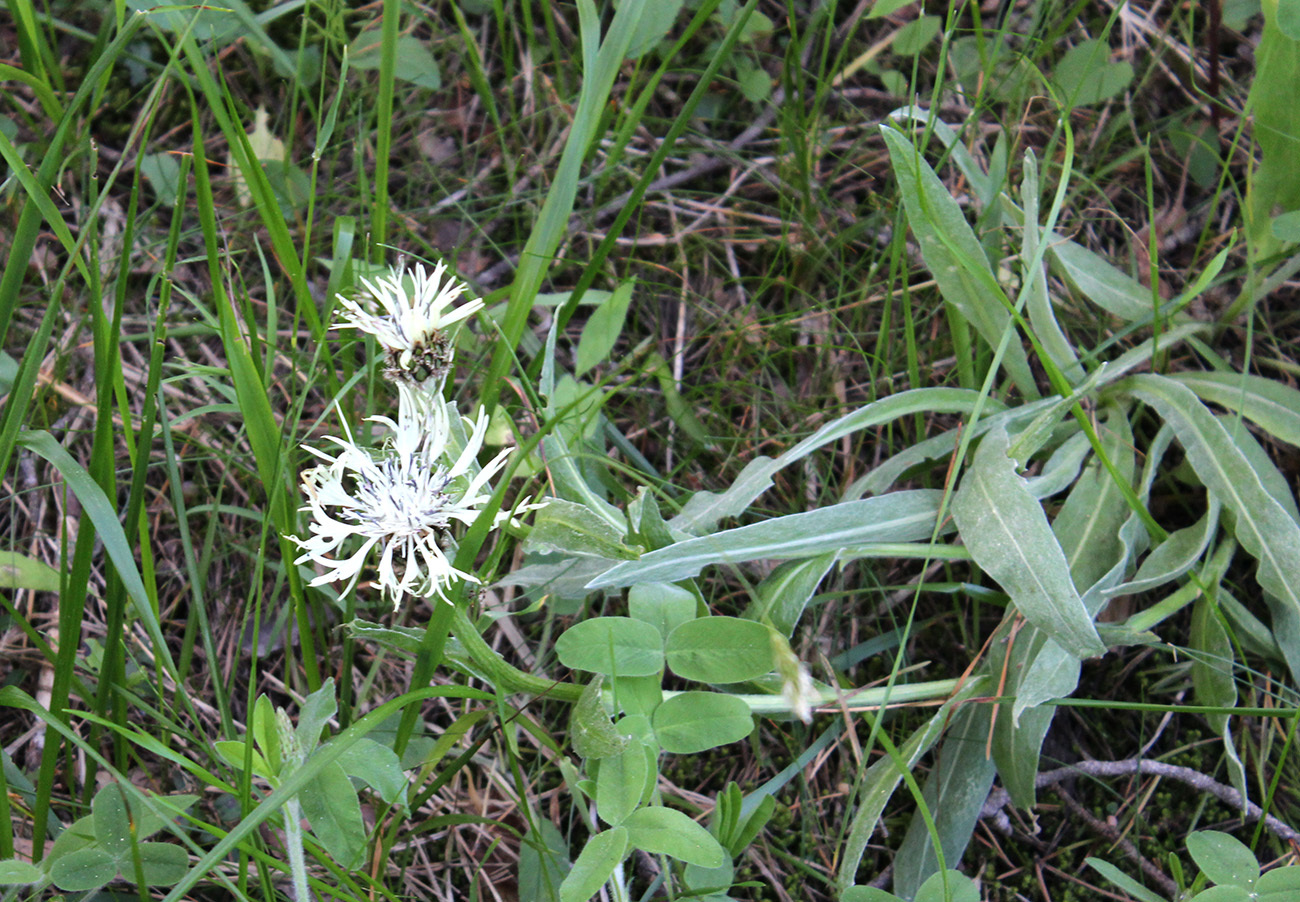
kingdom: Plantae
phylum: Tracheophyta
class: Magnoliopsida
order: Asterales
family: Asteraceae
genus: Centaurea
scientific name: Centaurea cheiranthifolia
